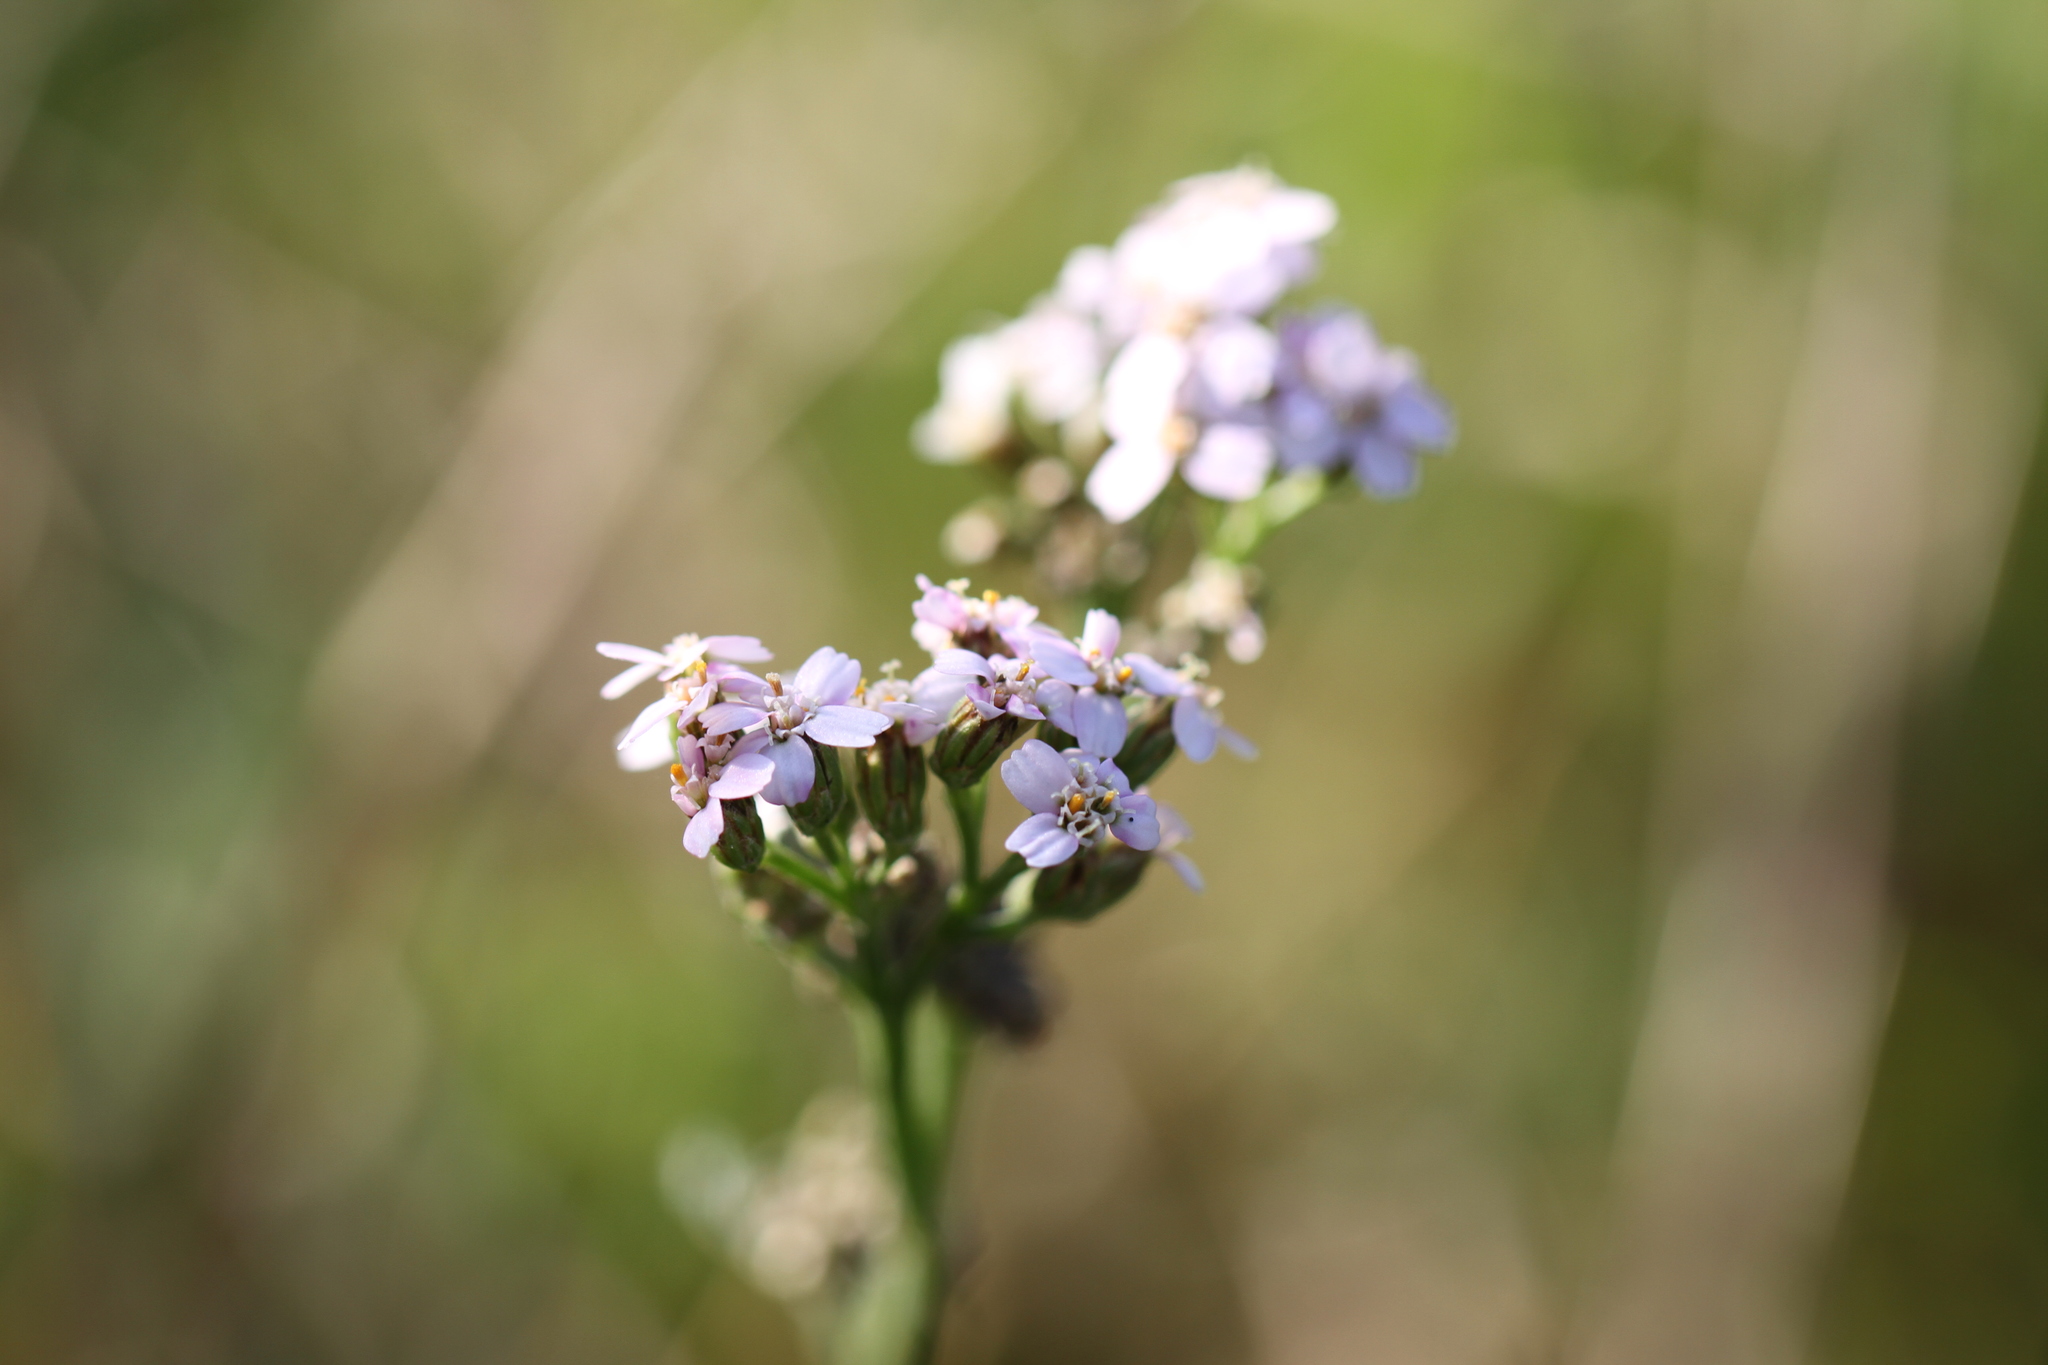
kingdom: Plantae
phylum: Tracheophyta
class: Magnoliopsida
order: Asterales
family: Asteraceae
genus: Achillea
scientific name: Achillea millefolium
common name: Yarrow
